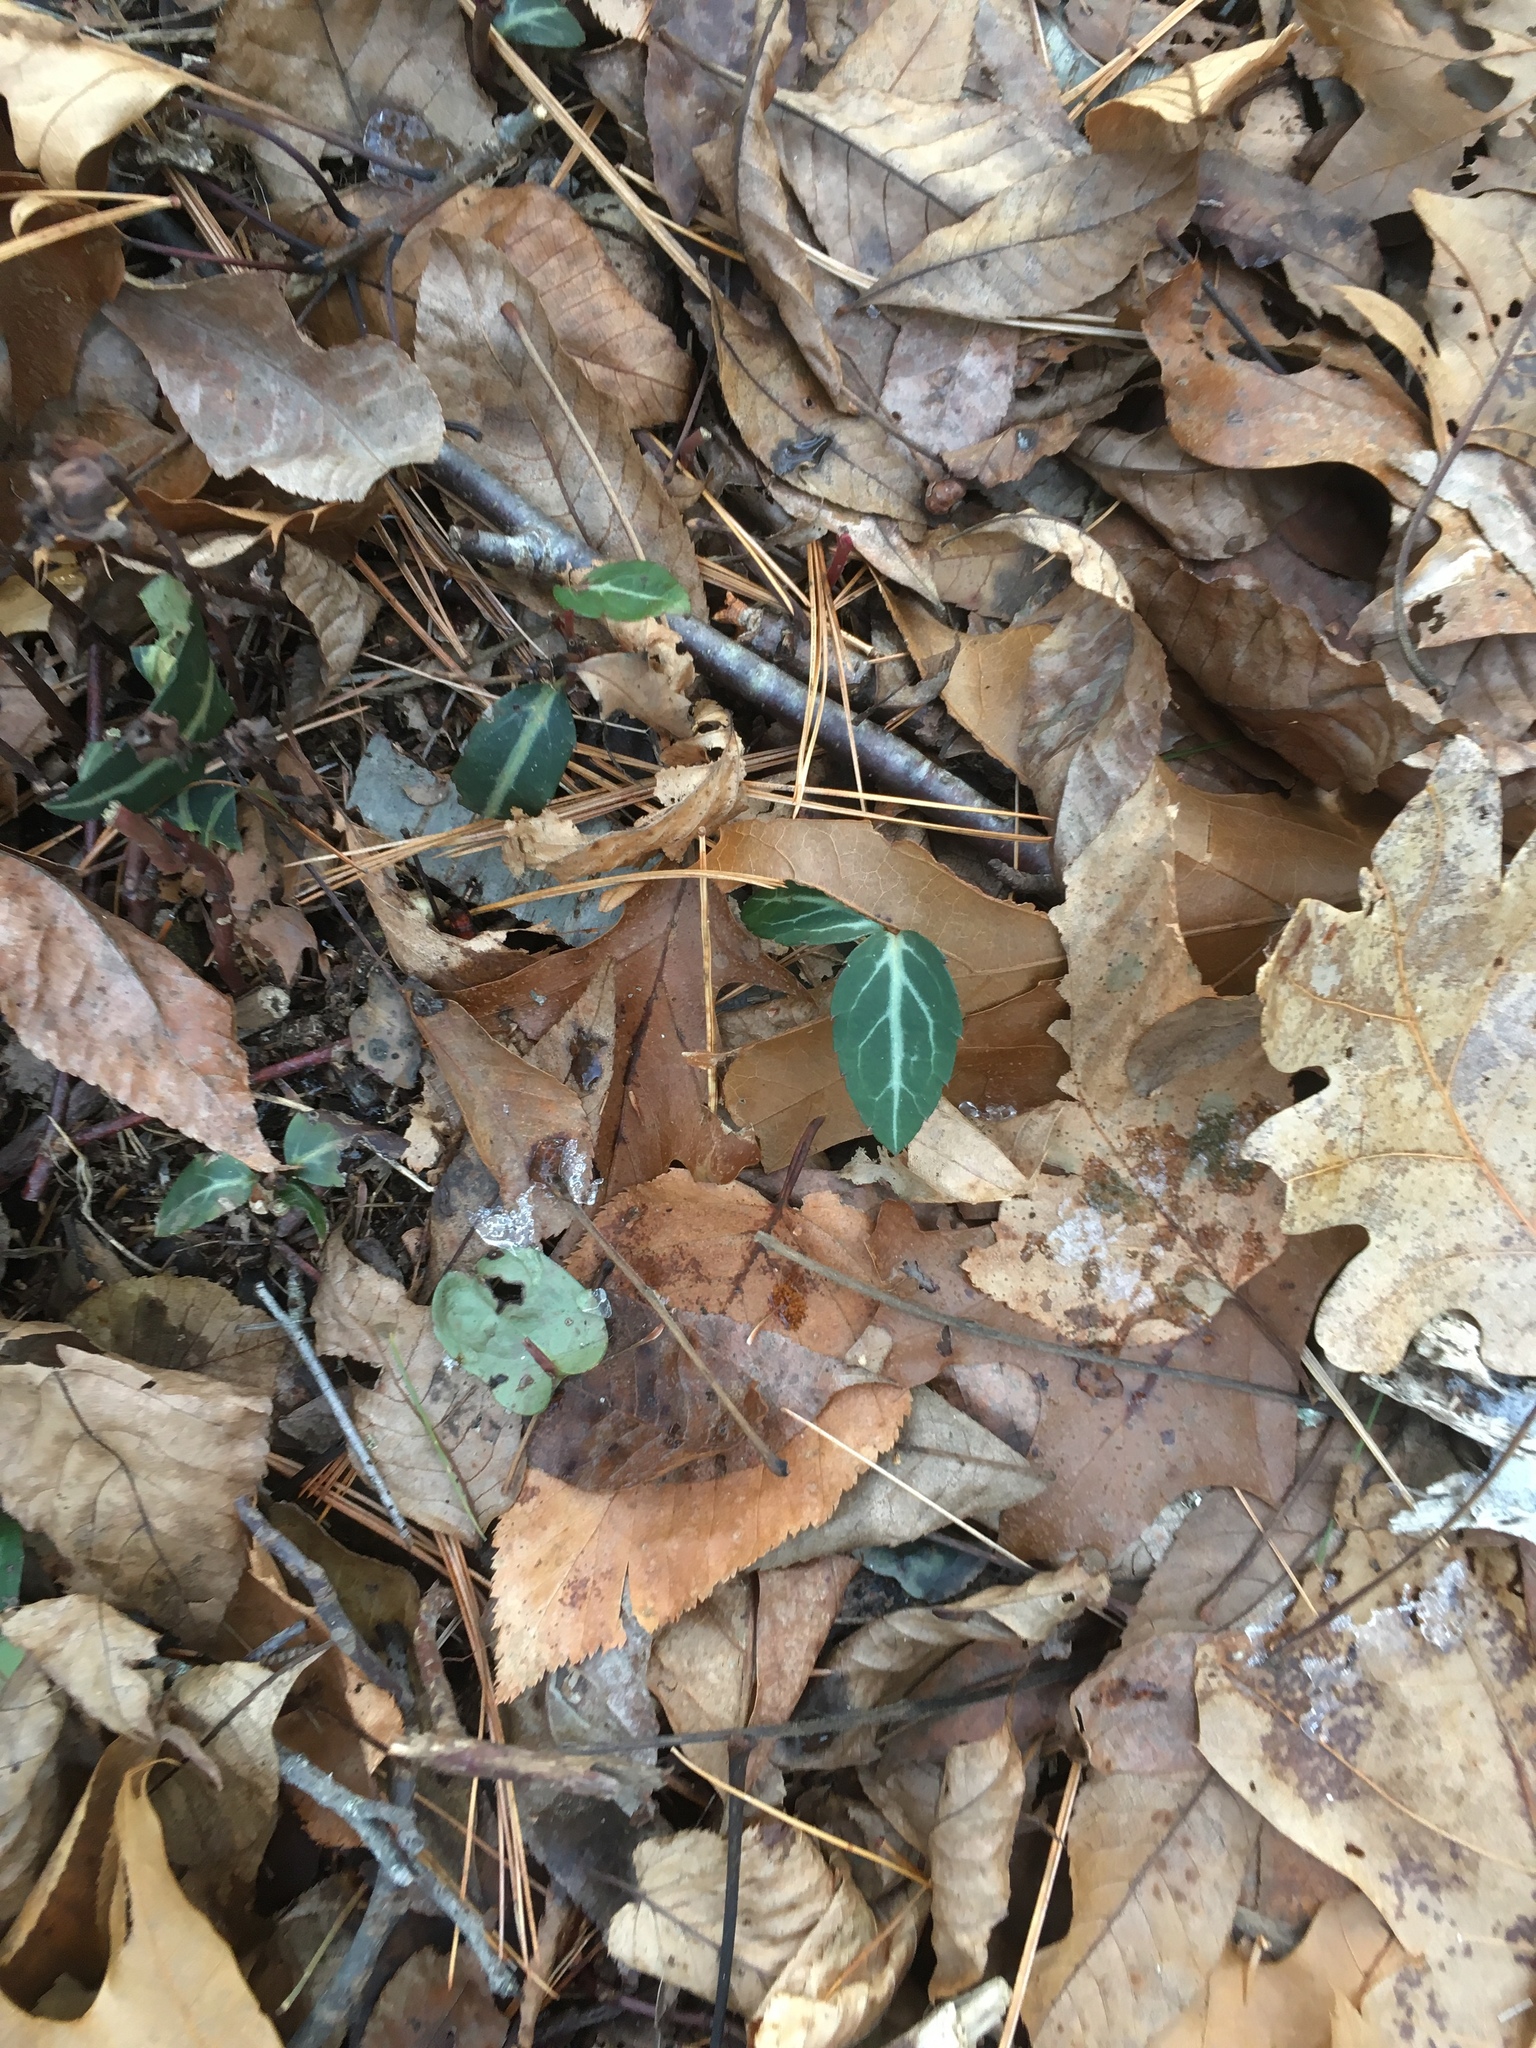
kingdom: Plantae
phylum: Tracheophyta
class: Magnoliopsida
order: Ericales
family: Ericaceae
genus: Chimaphila
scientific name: Chimaphila maculata
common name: Spotted pipsissewa
